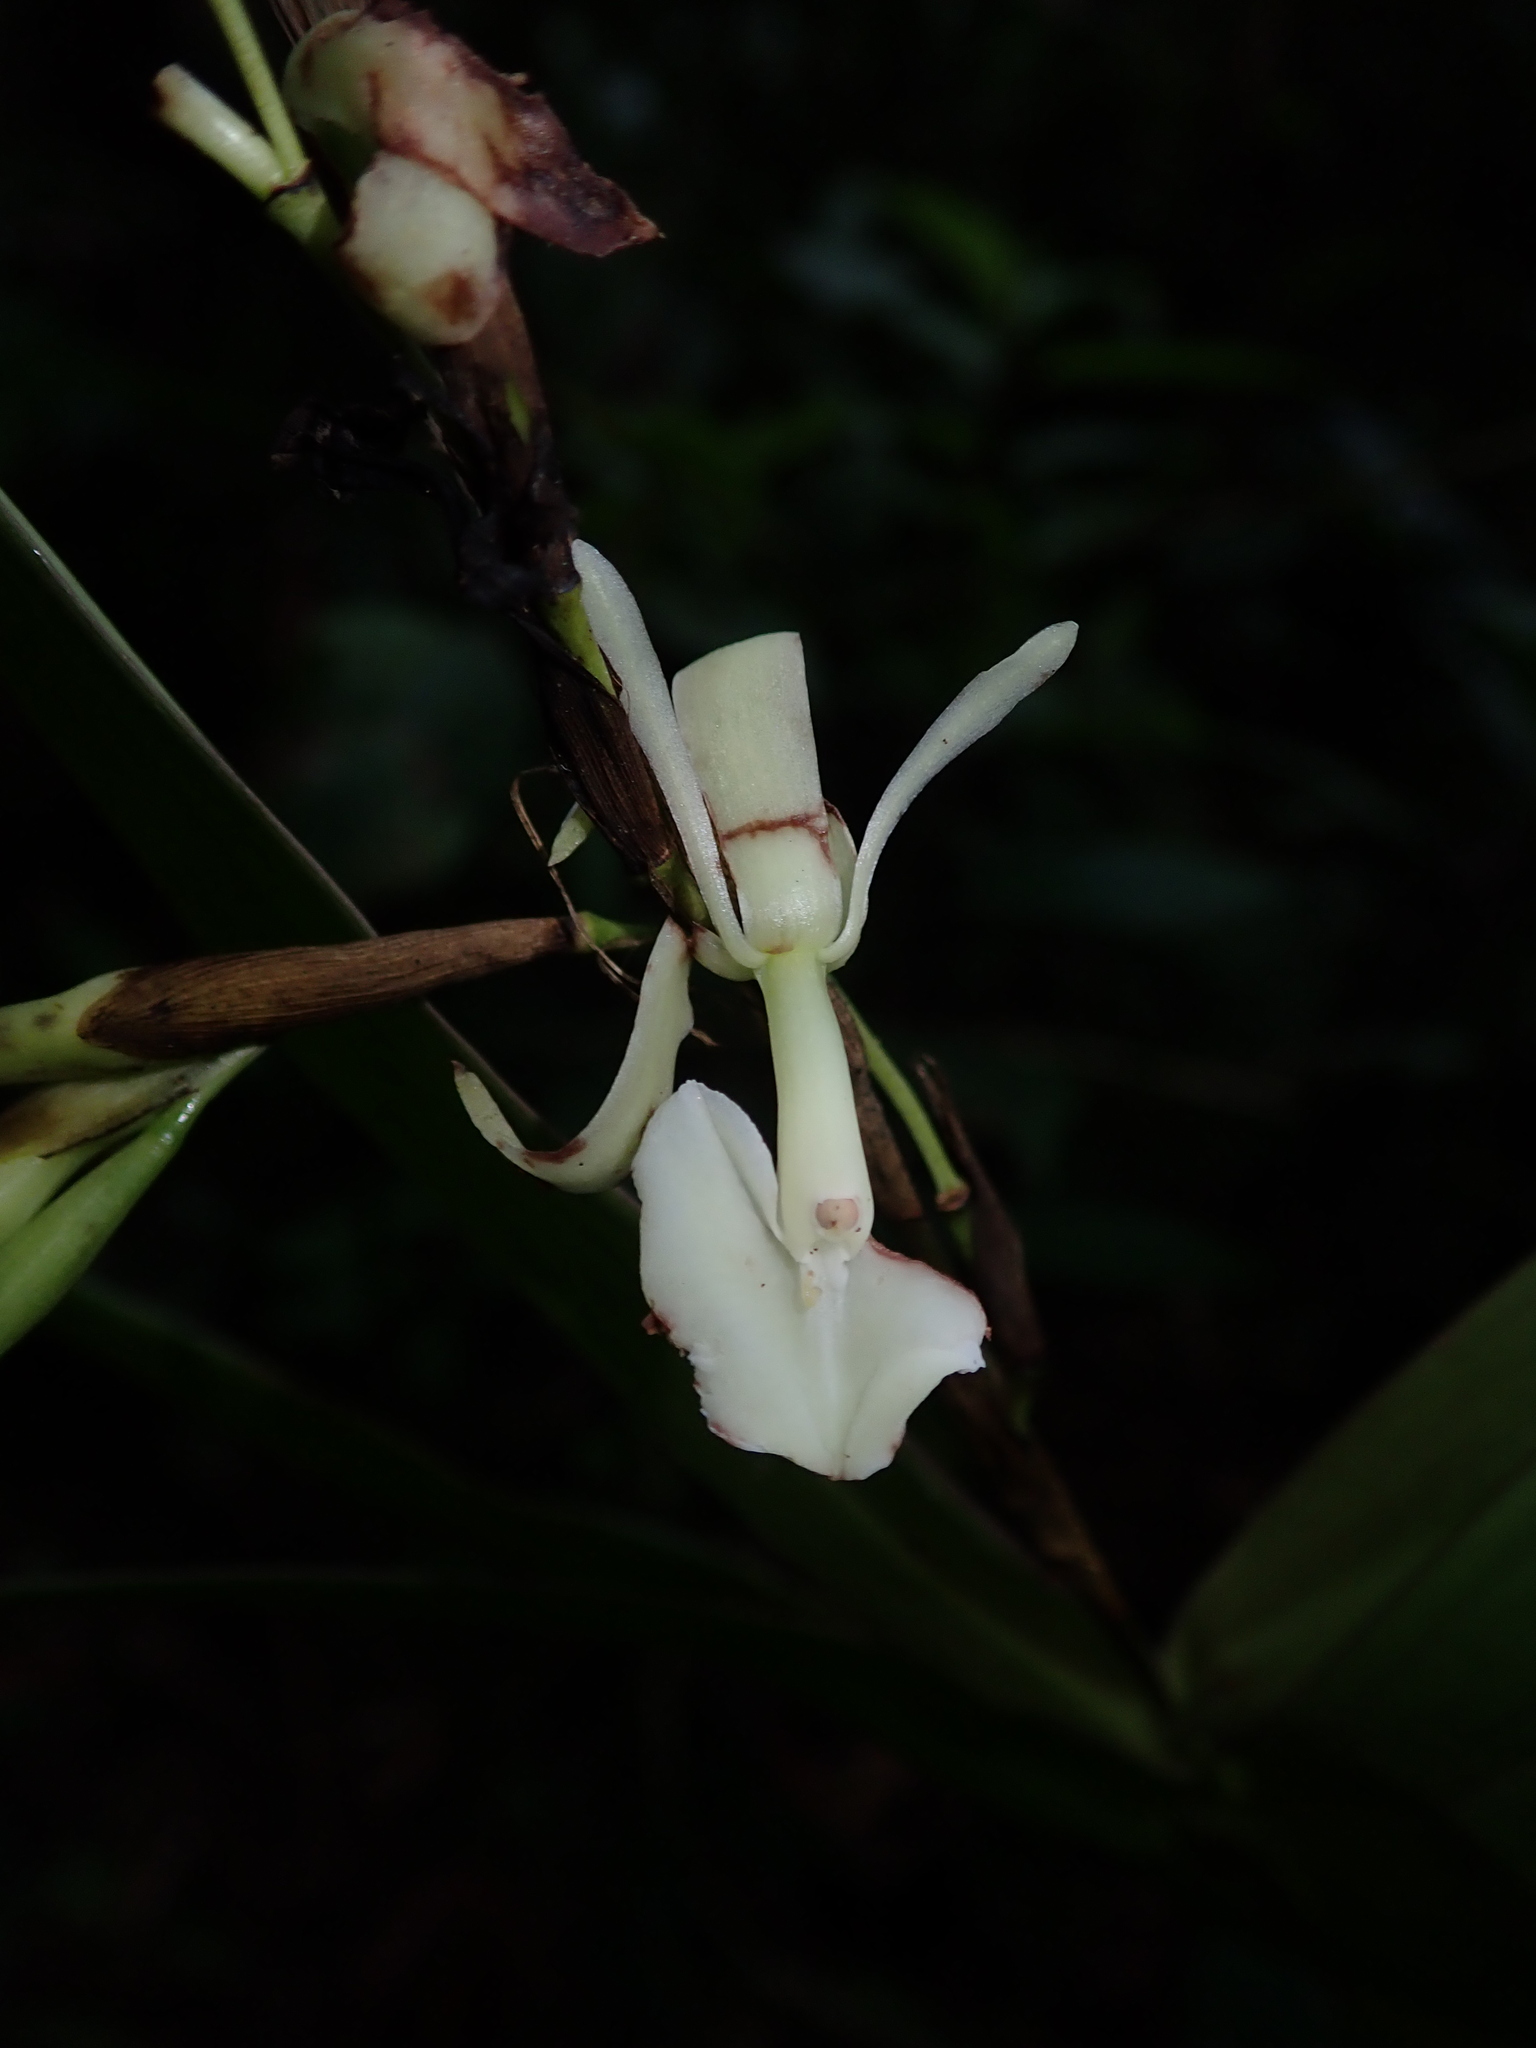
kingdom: Plantae
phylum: Tracheophyta
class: Liliopsida
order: Asparagales
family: Orchidaceae
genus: Epidendrum
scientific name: Epidendrum hymenodes
